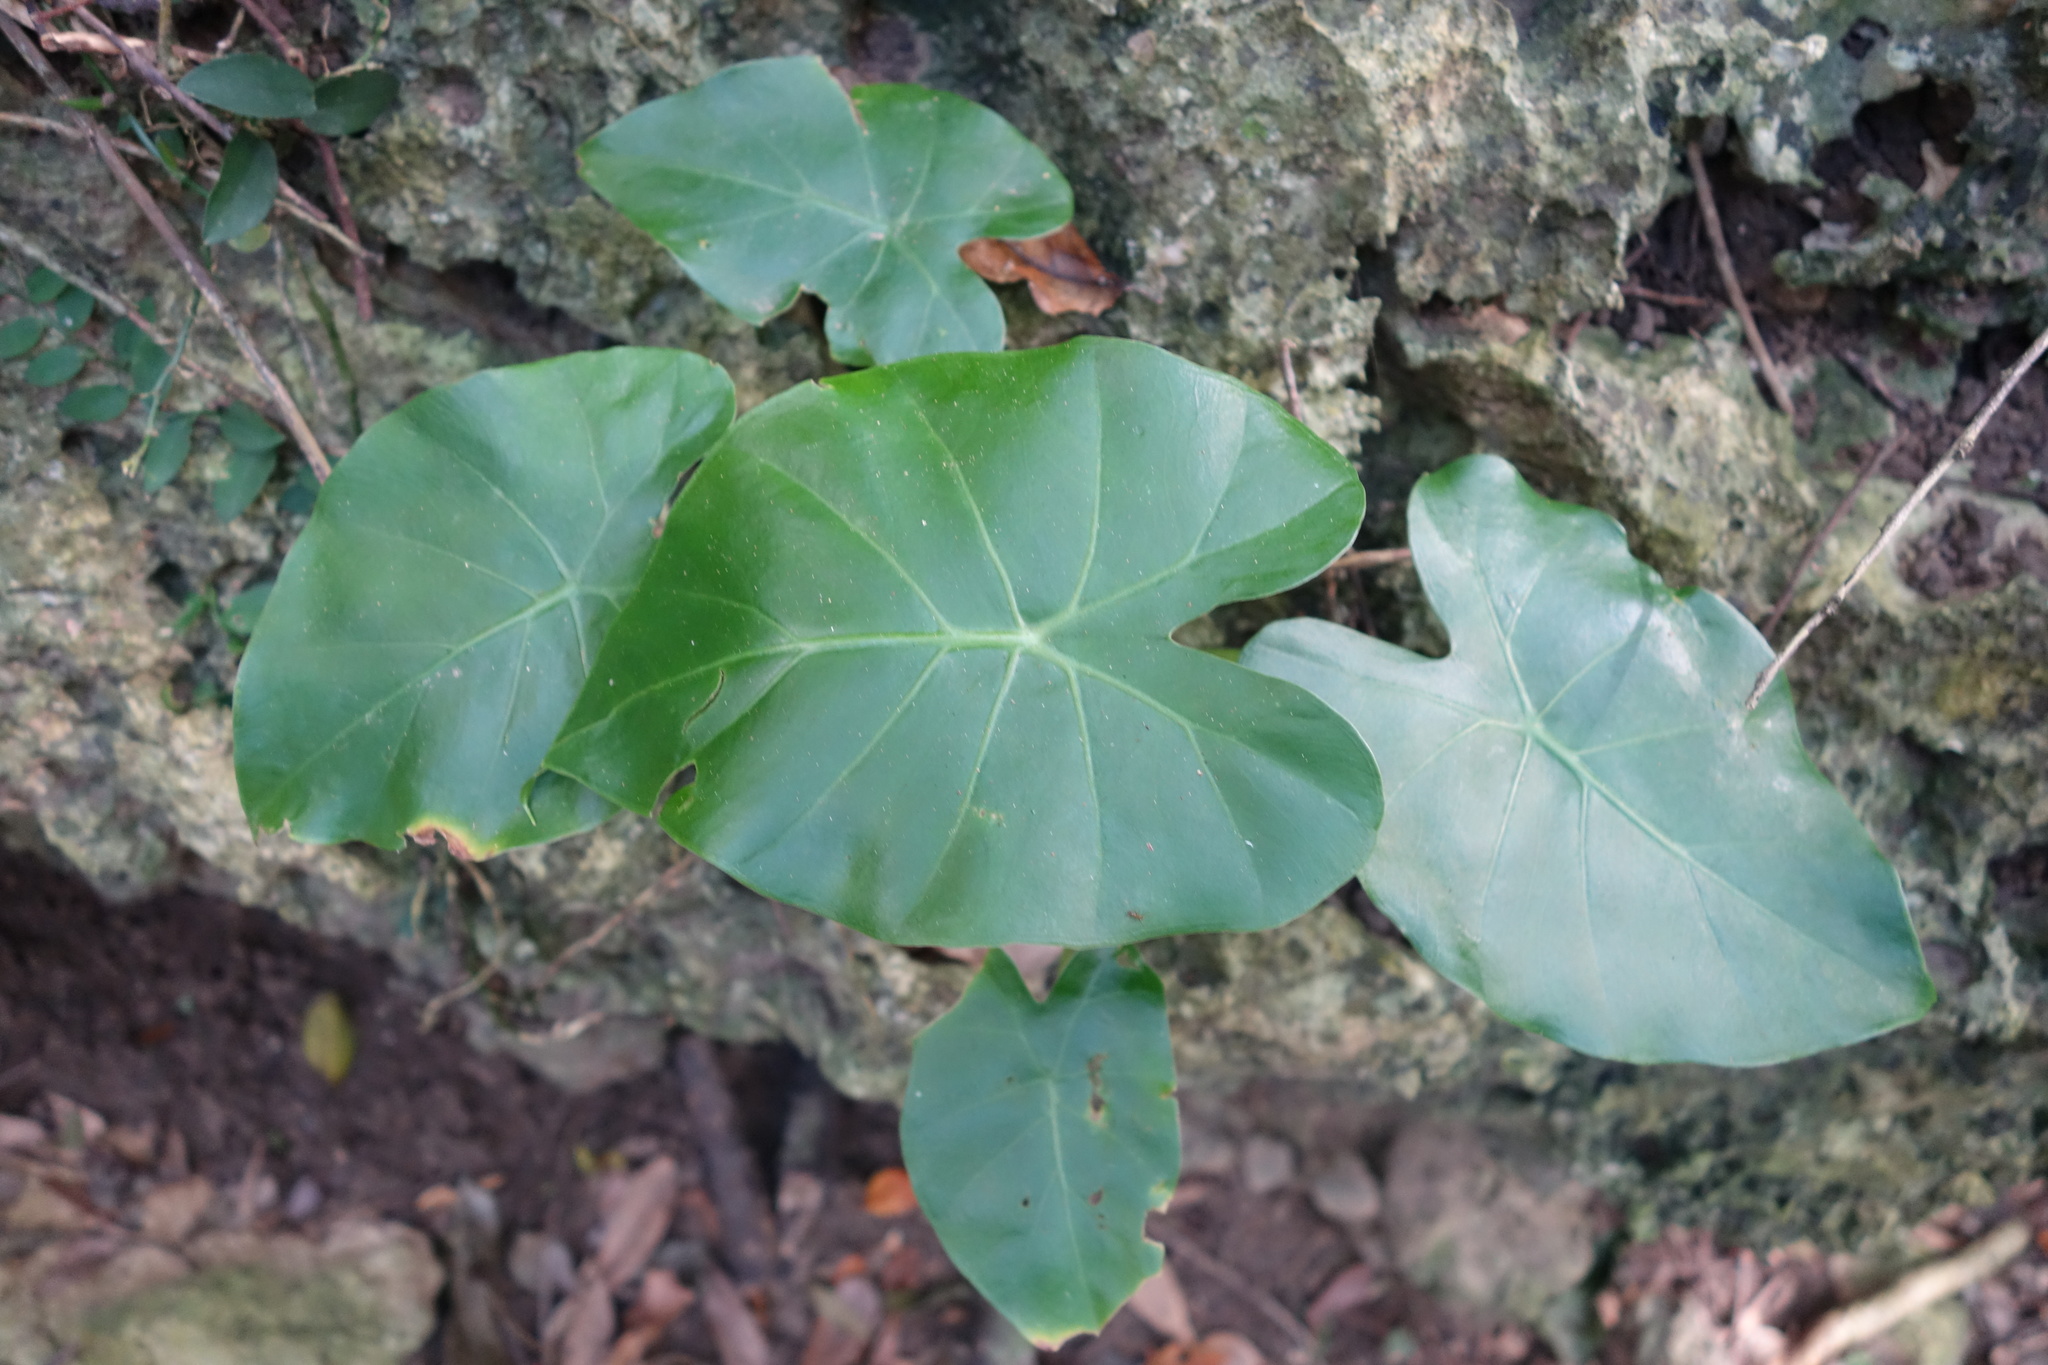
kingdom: Plantae
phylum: Tracheophyta
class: Liliopsida
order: Alismatales
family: Araceae
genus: Alocasia
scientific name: Alocasia odora
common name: Asian taro
